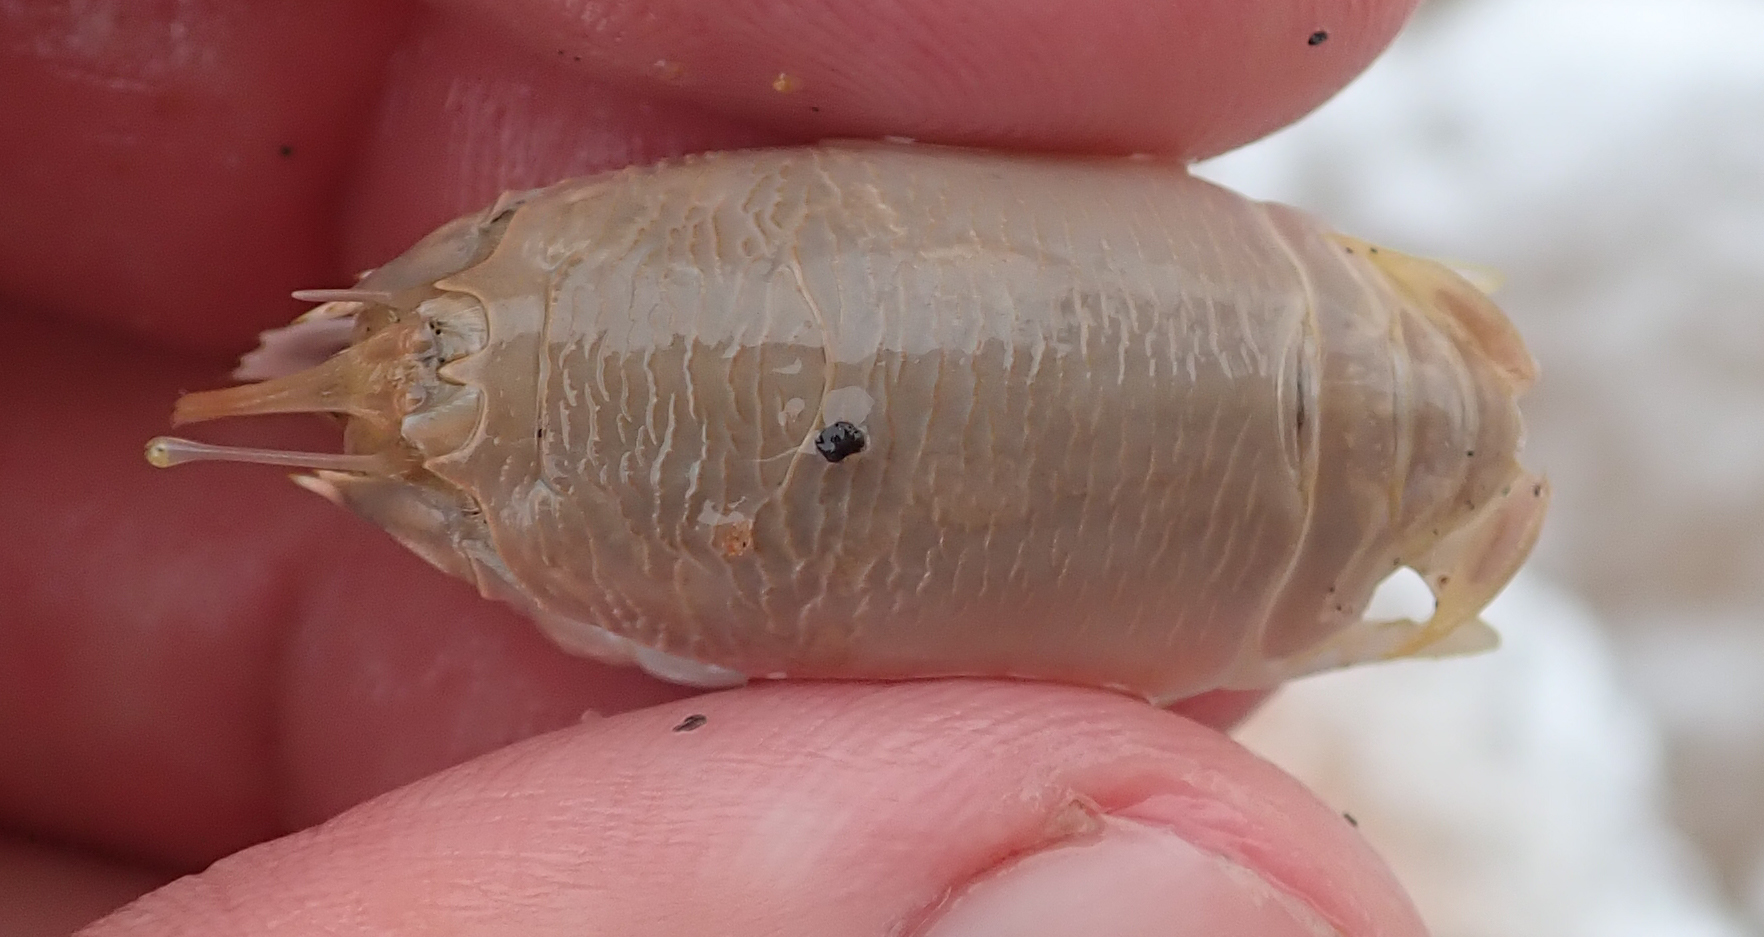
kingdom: Animalia
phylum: Arthropoda
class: Malacostraca
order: Decapoda
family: Hippidae
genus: Emerita
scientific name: Emerita austroafricana
